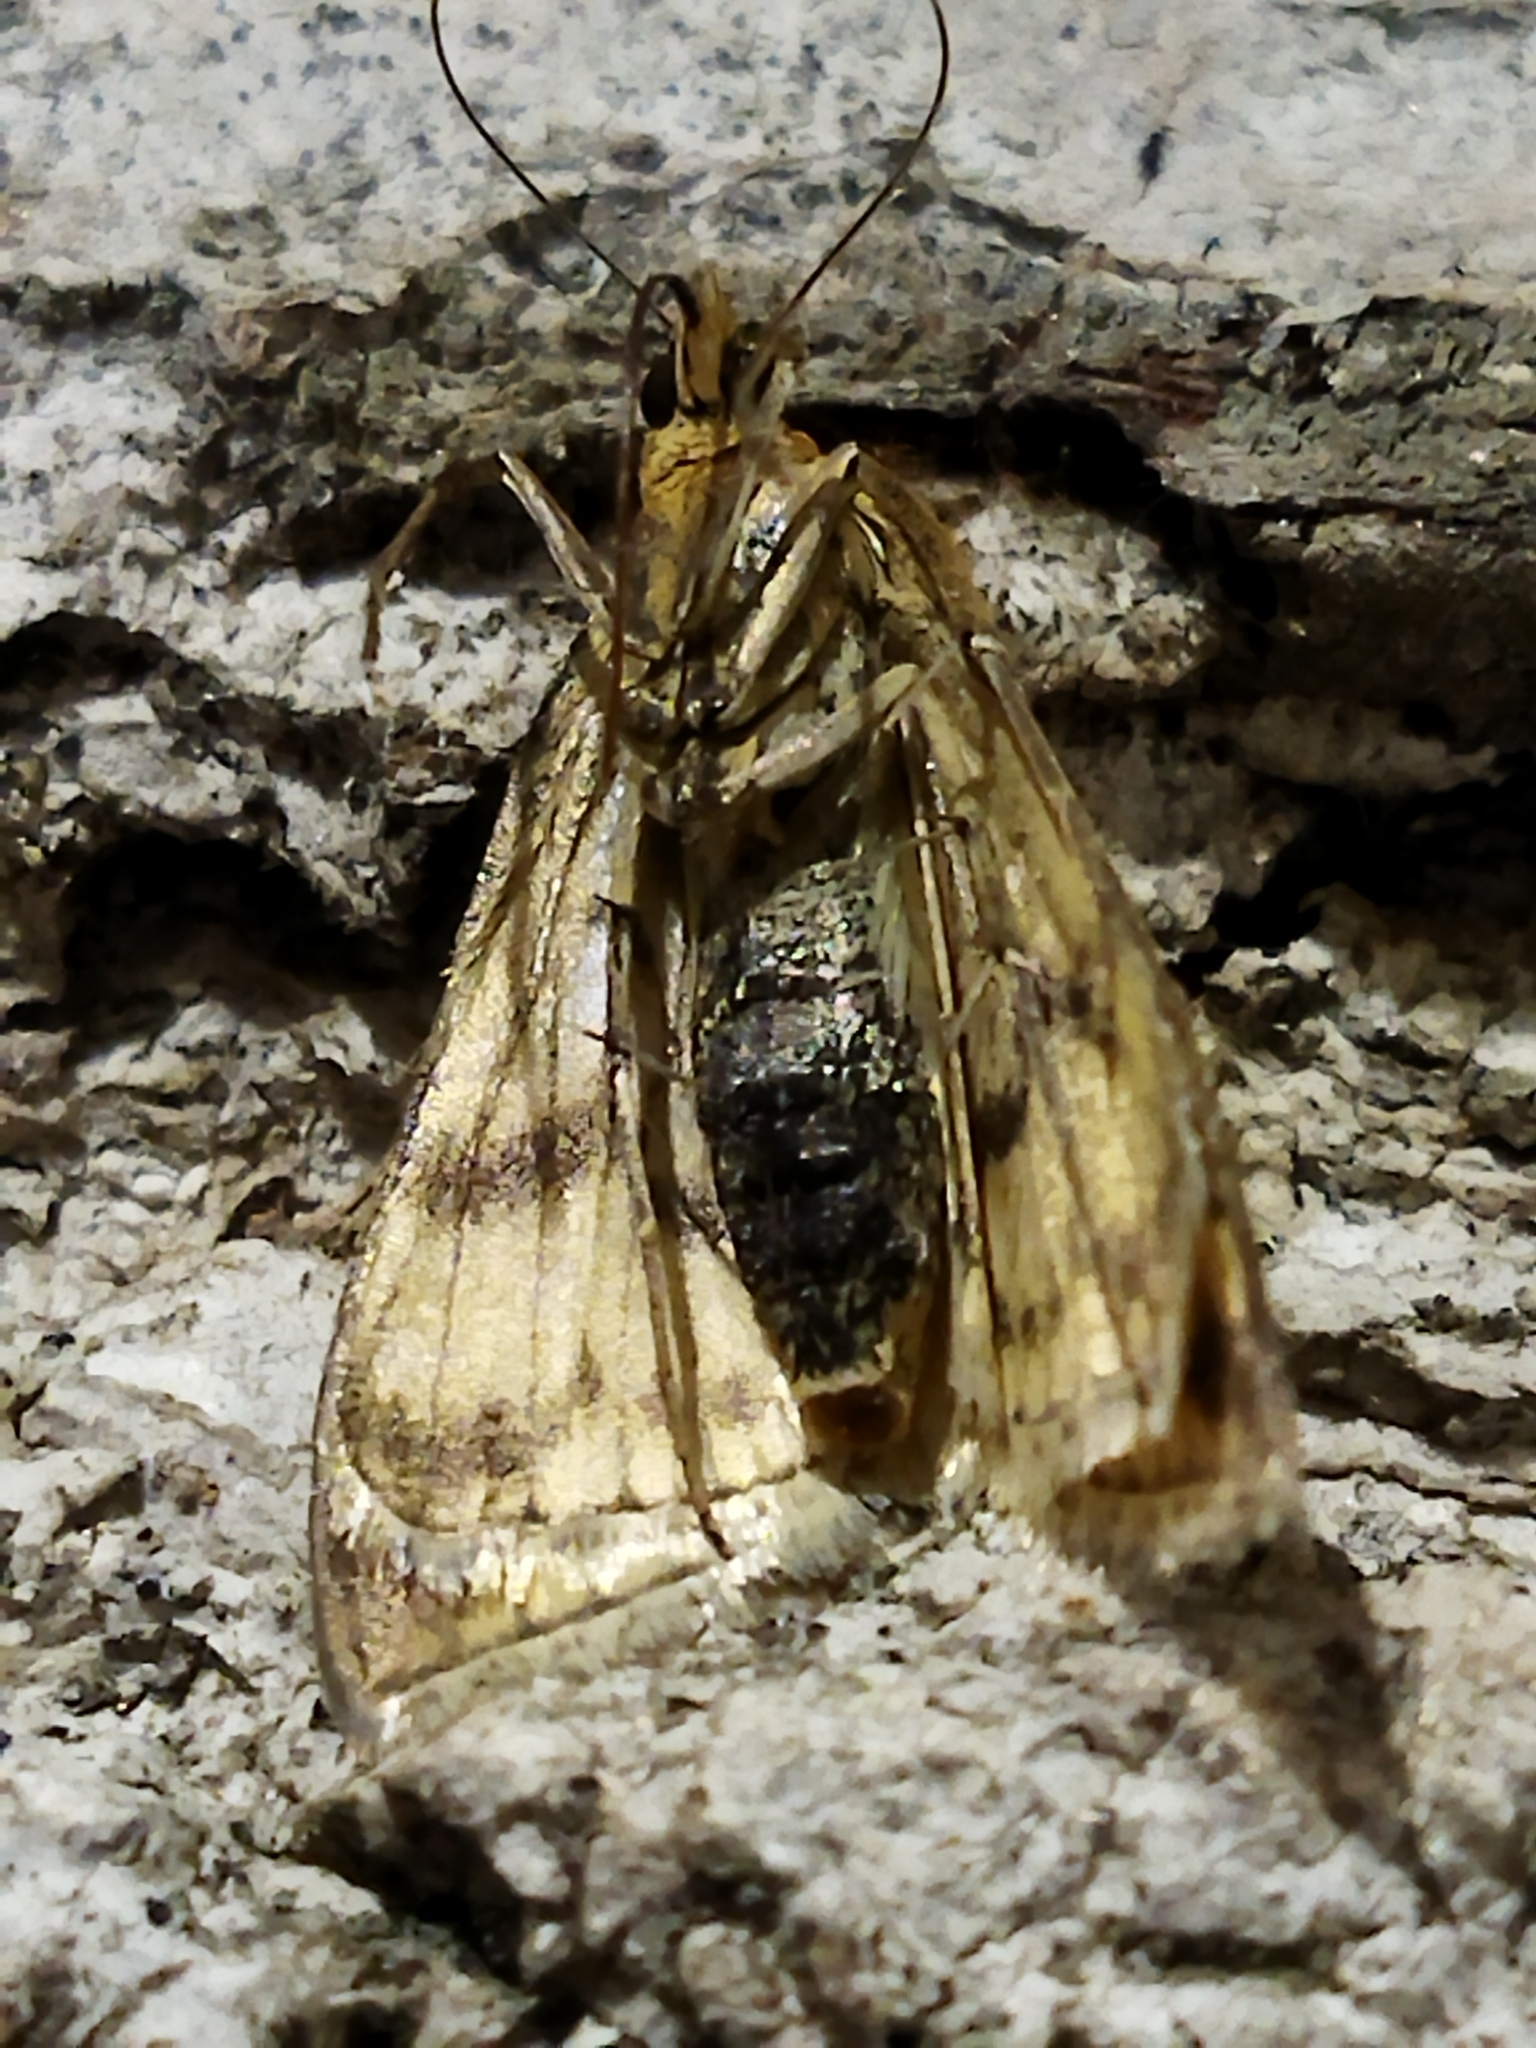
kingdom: Animalia
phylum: Arthropoda
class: Insecta
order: Lepidoptera
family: Crambidae
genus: Sitochroa
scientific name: Sitochroa verticalis
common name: Lesser pearl
